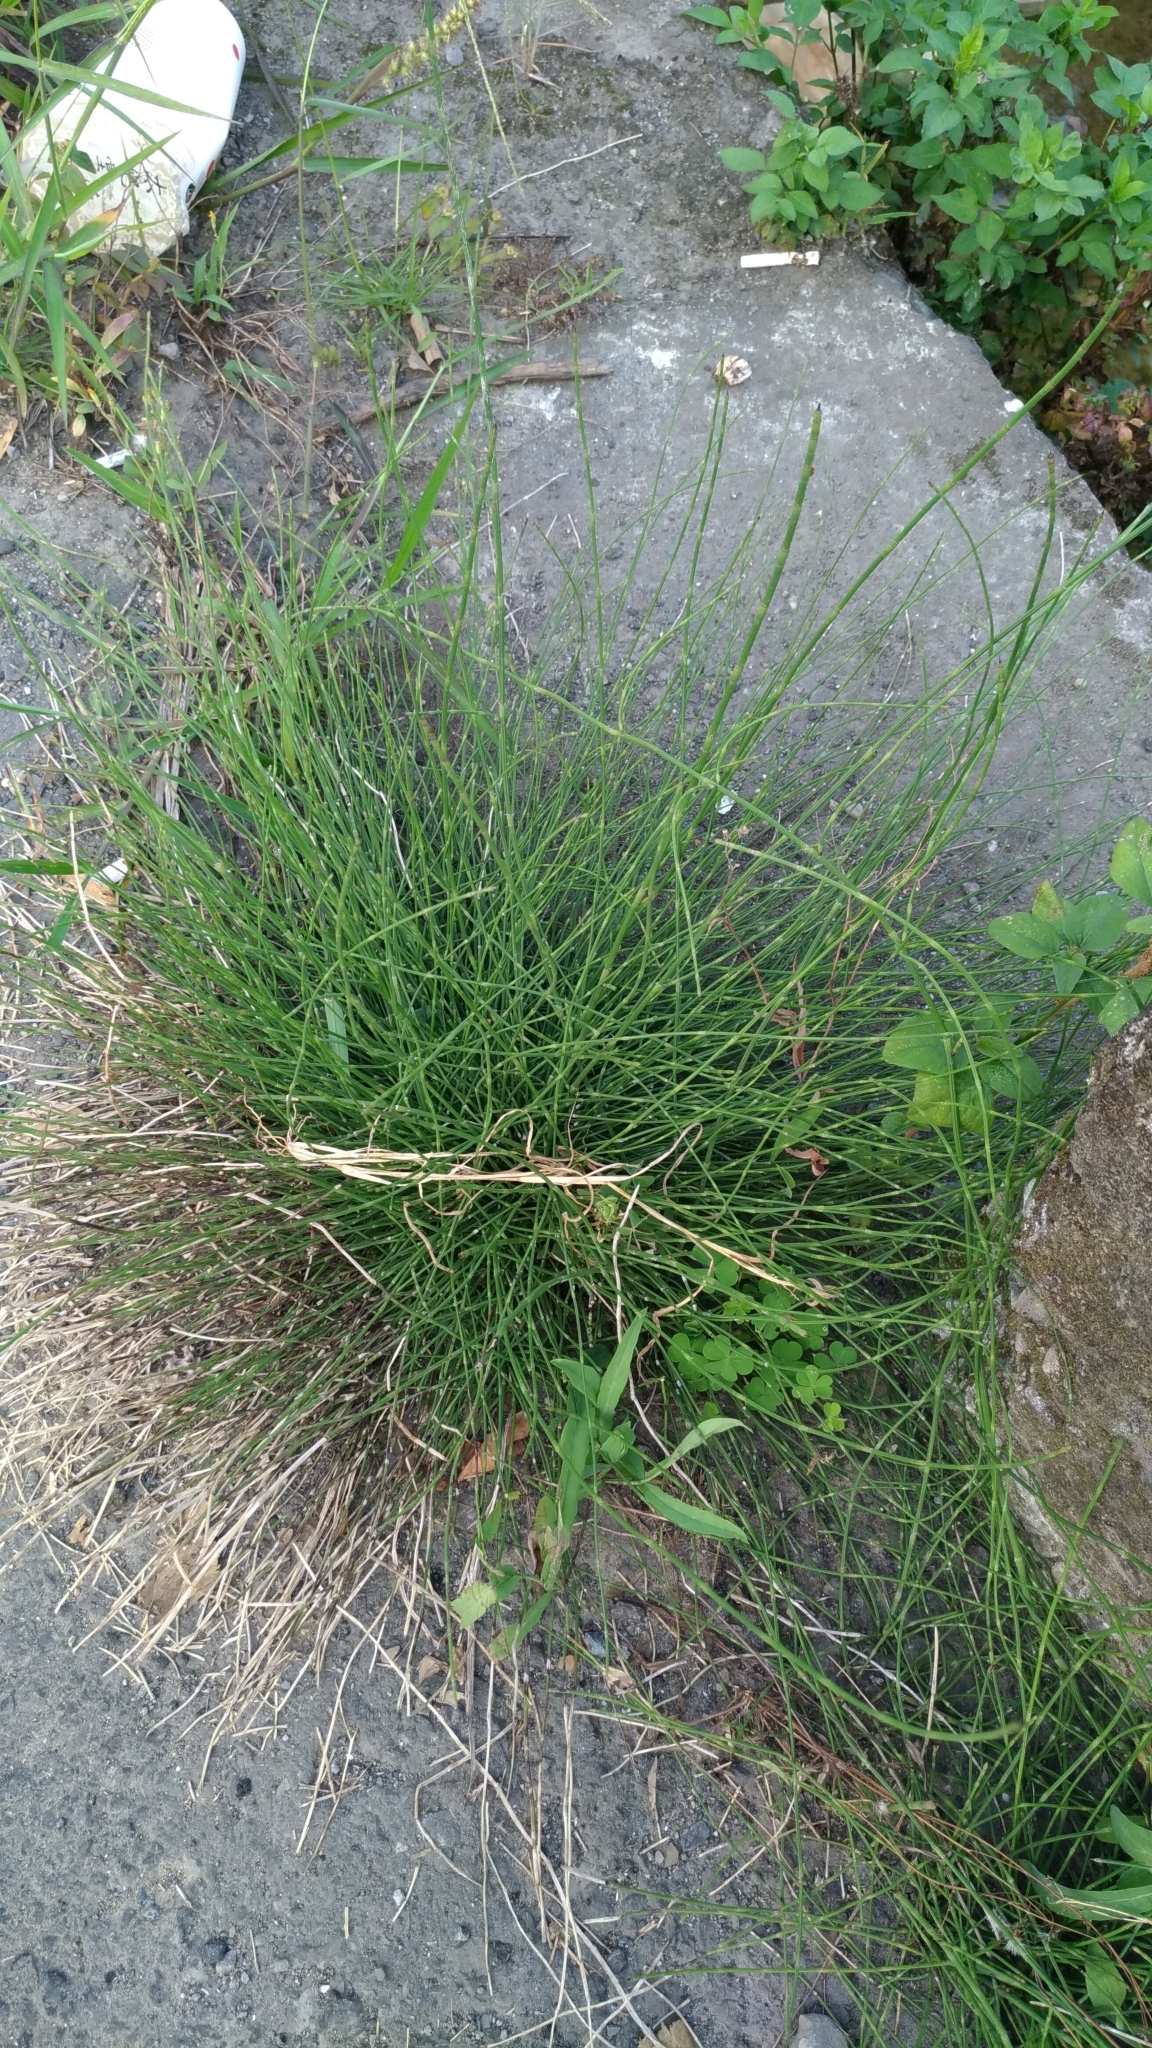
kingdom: Plantae
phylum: Tracheophyta
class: Polypodiopsida
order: Equisetales
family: Equisetaceae
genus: Equisetum
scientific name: Equisetum ramosissimum
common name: Branched horsetail
